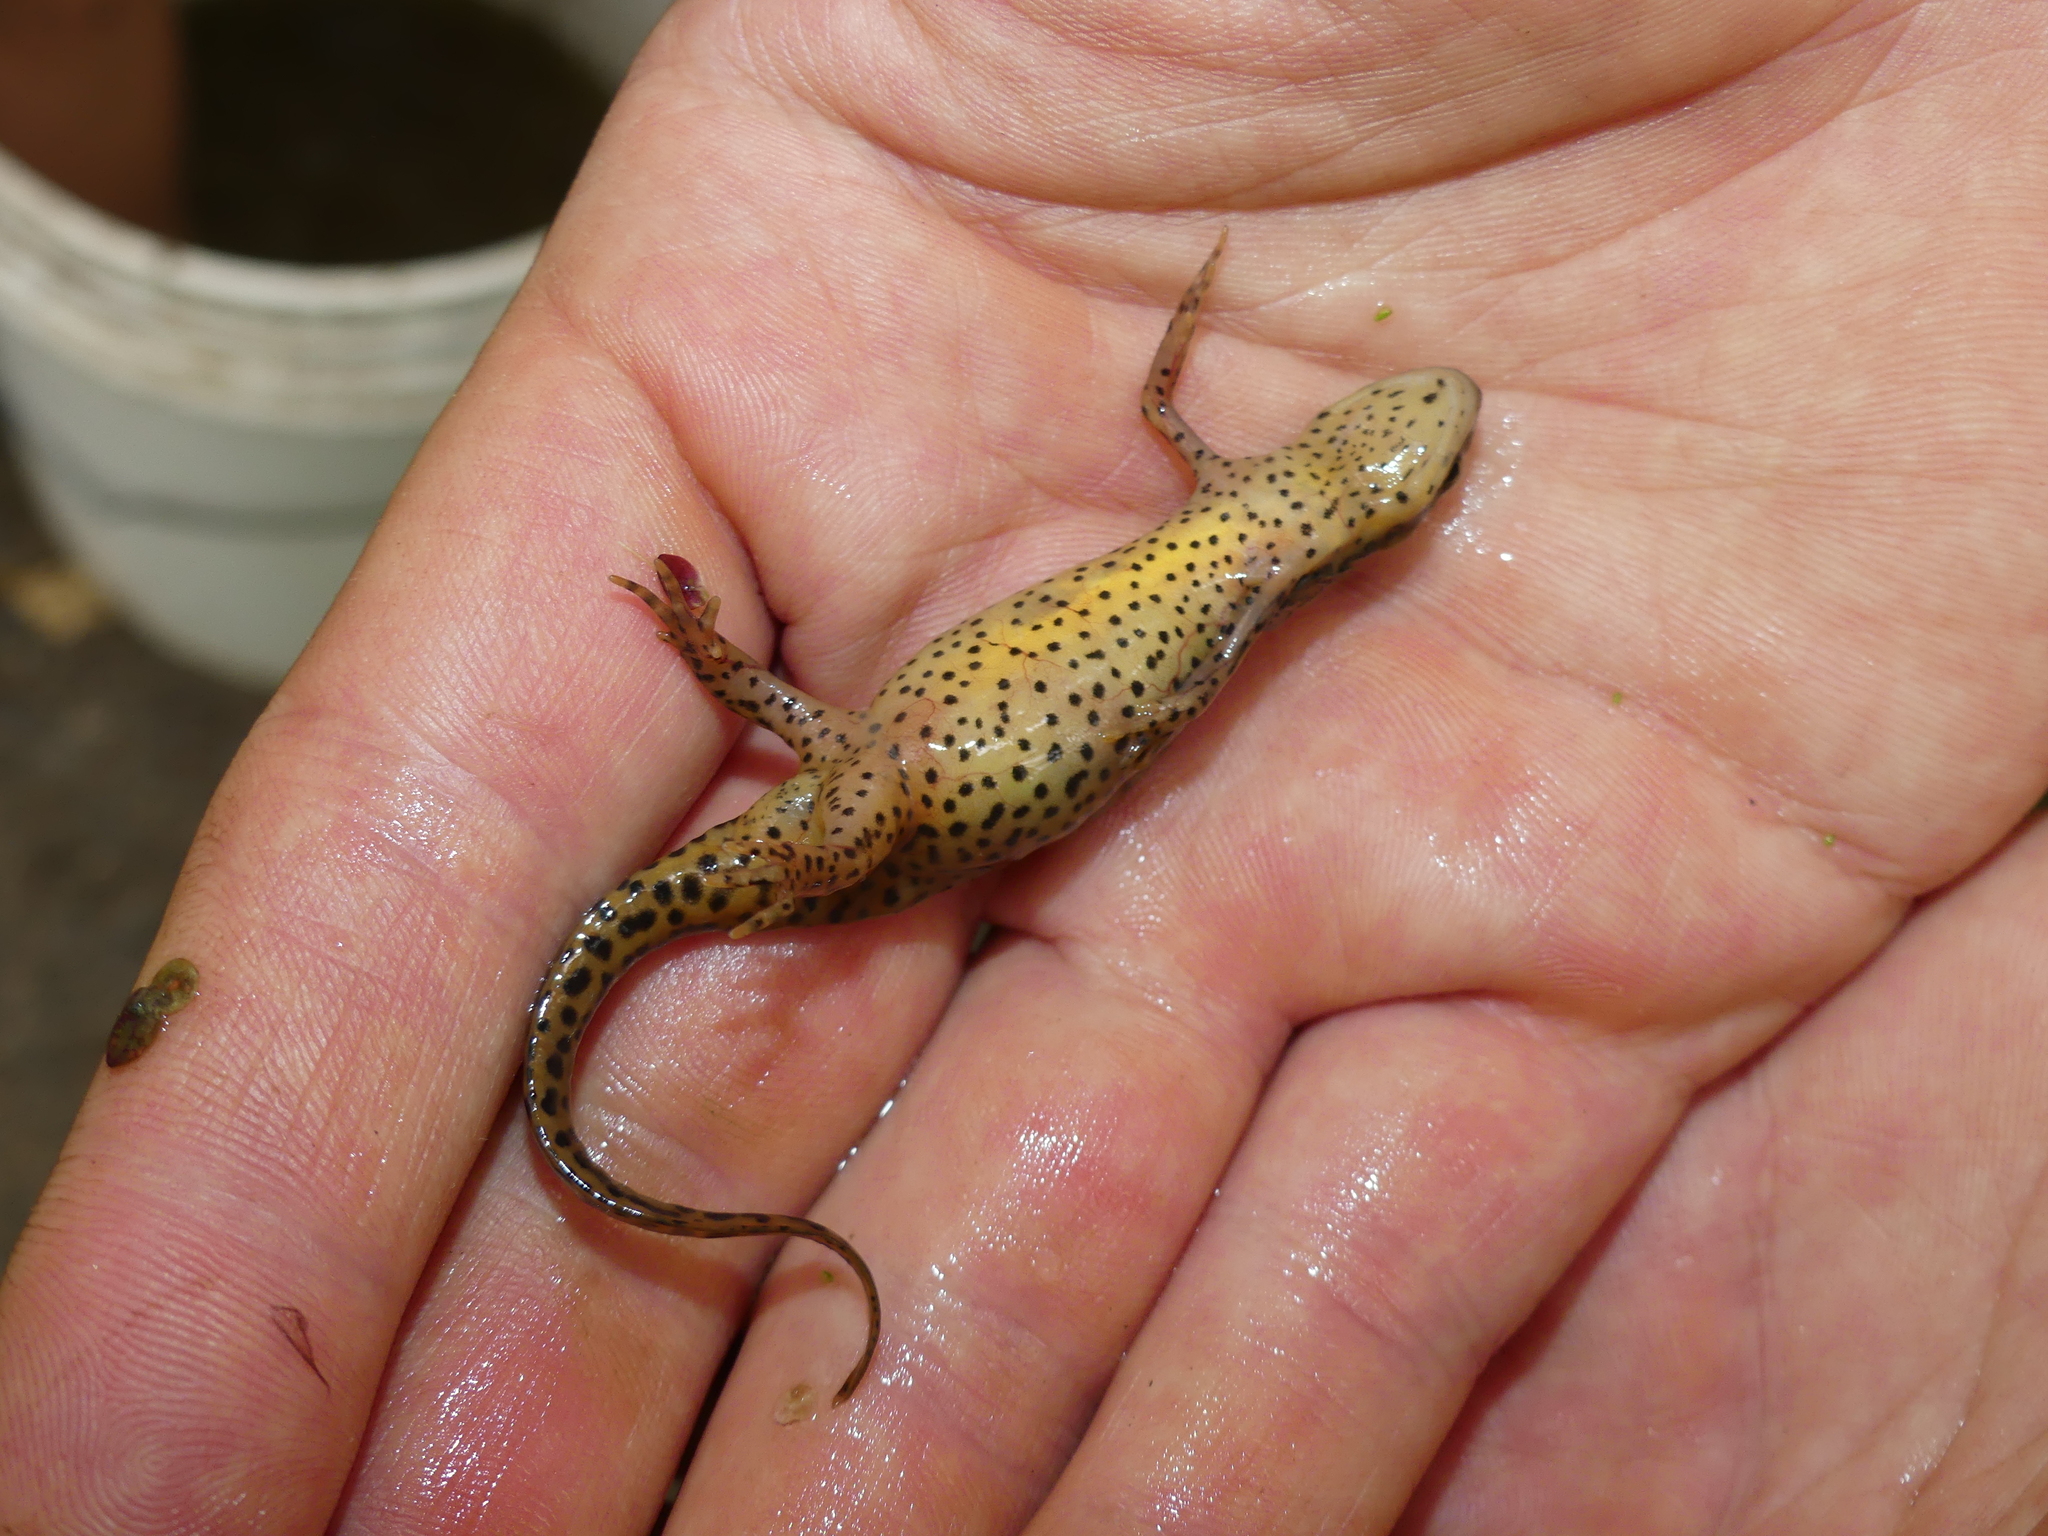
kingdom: Animalia
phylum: Chordata
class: Amphibia
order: Caudata
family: Salamandridae
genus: Notophthalmus
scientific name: Notophthalmus viridescens
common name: Eastern newt
